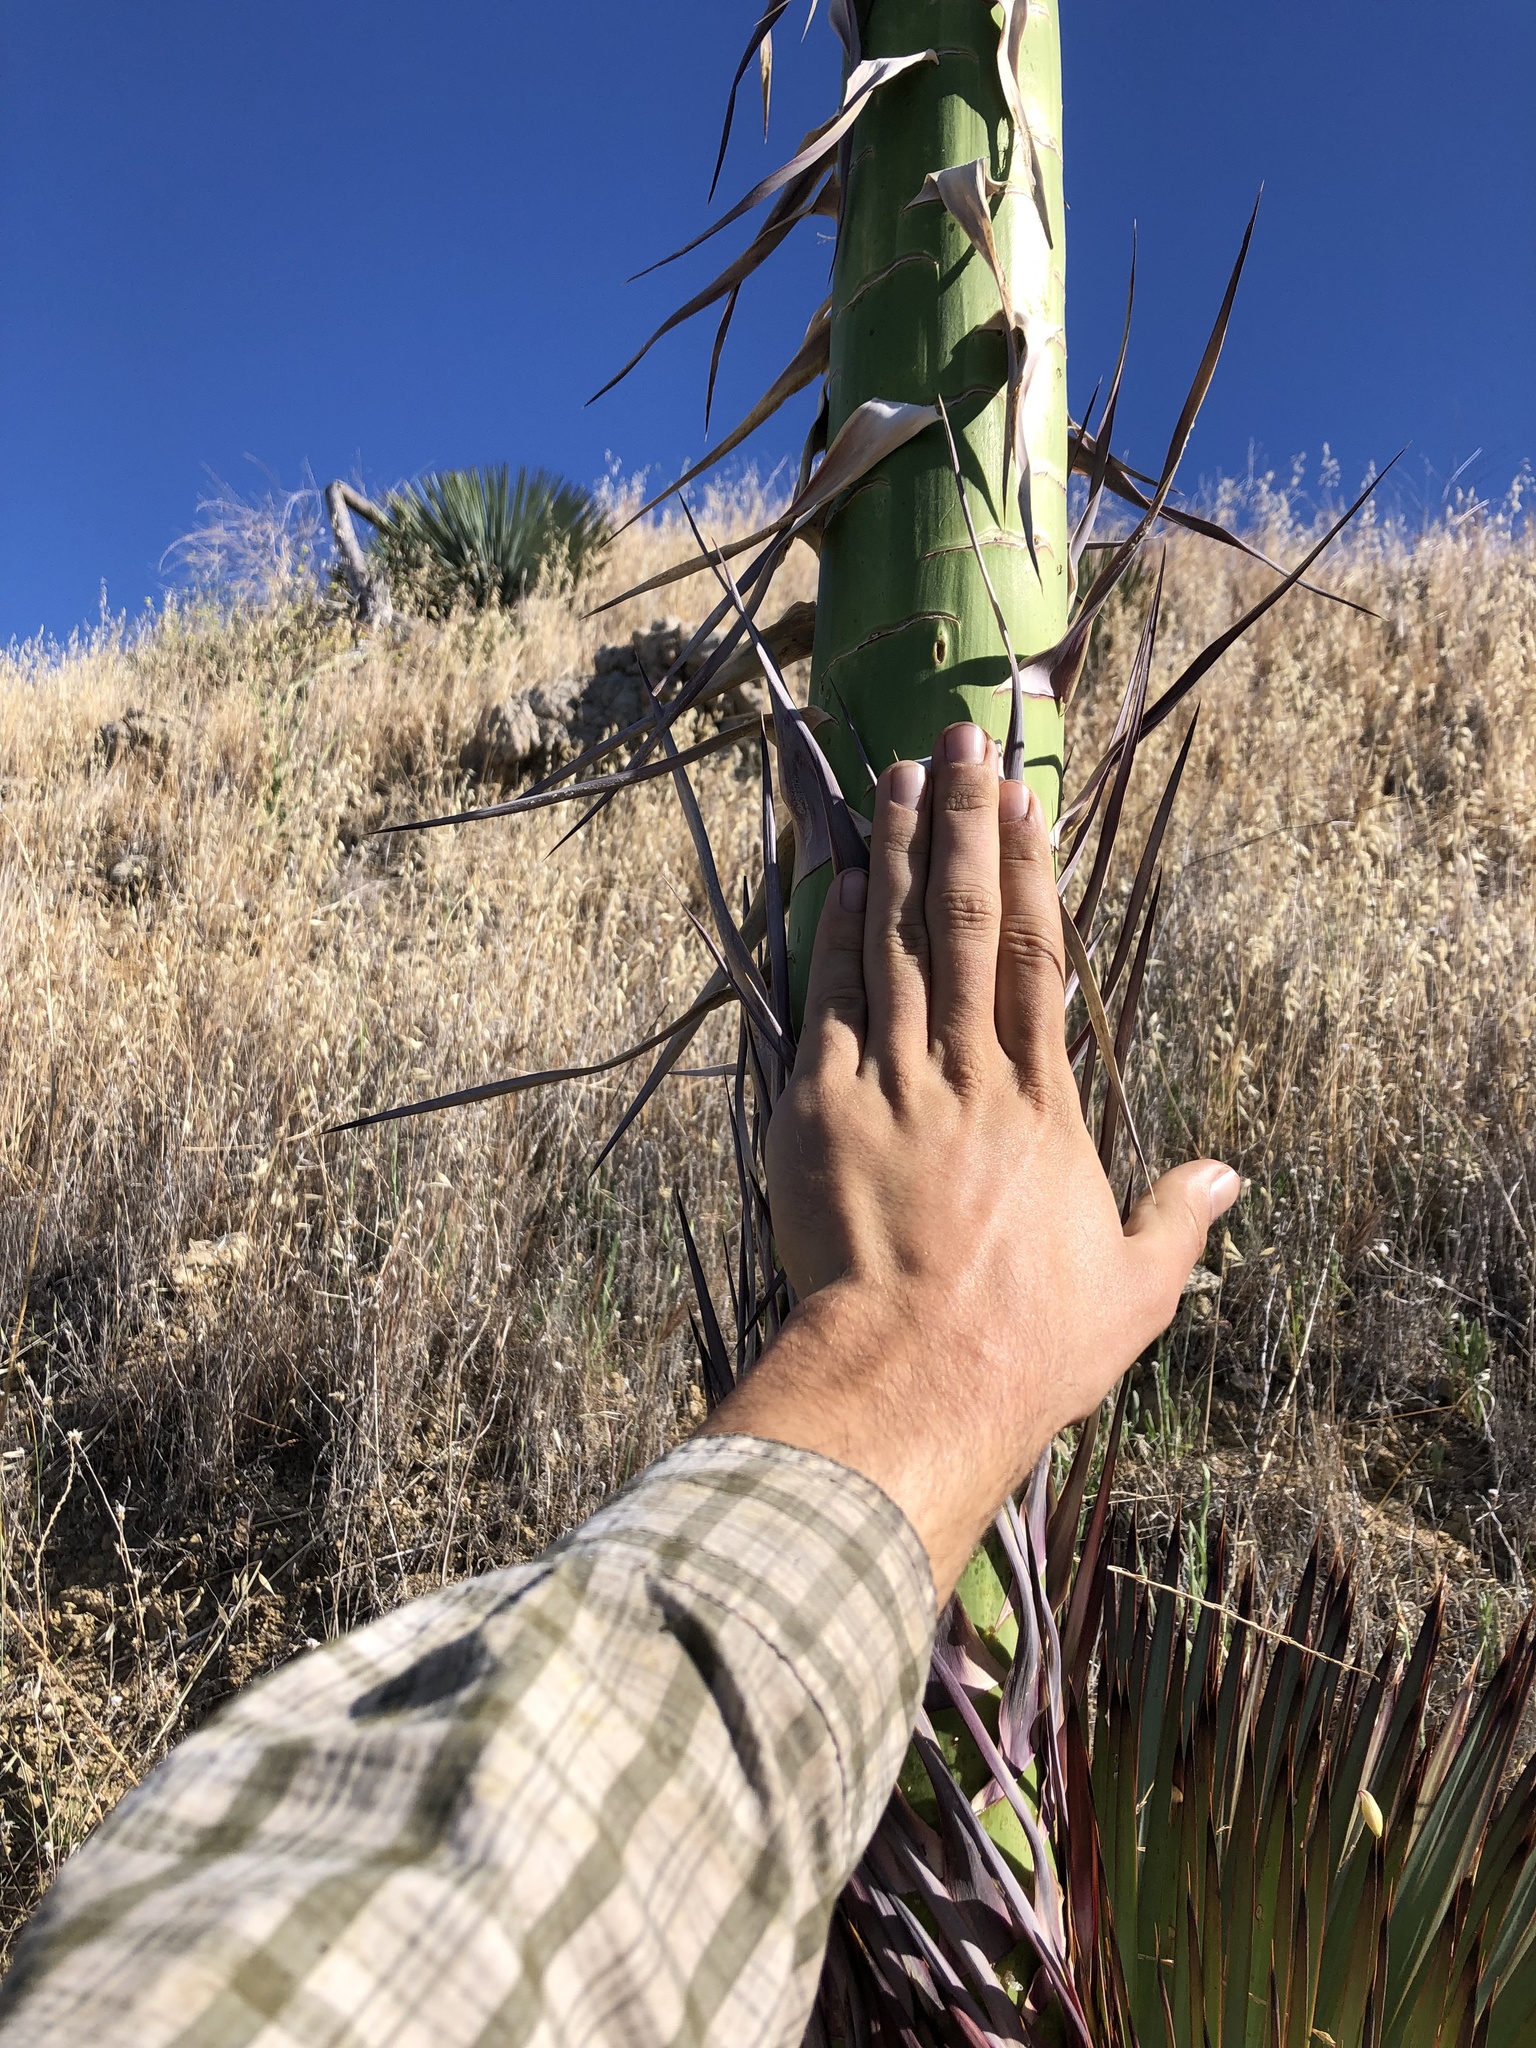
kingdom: Plantae
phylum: Tracheophyta
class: Liliopsida
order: Asparagales
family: Asparagaceae
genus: Hesperoyucca
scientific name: Hesperoyucca whipplei
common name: Our lord's-candle
